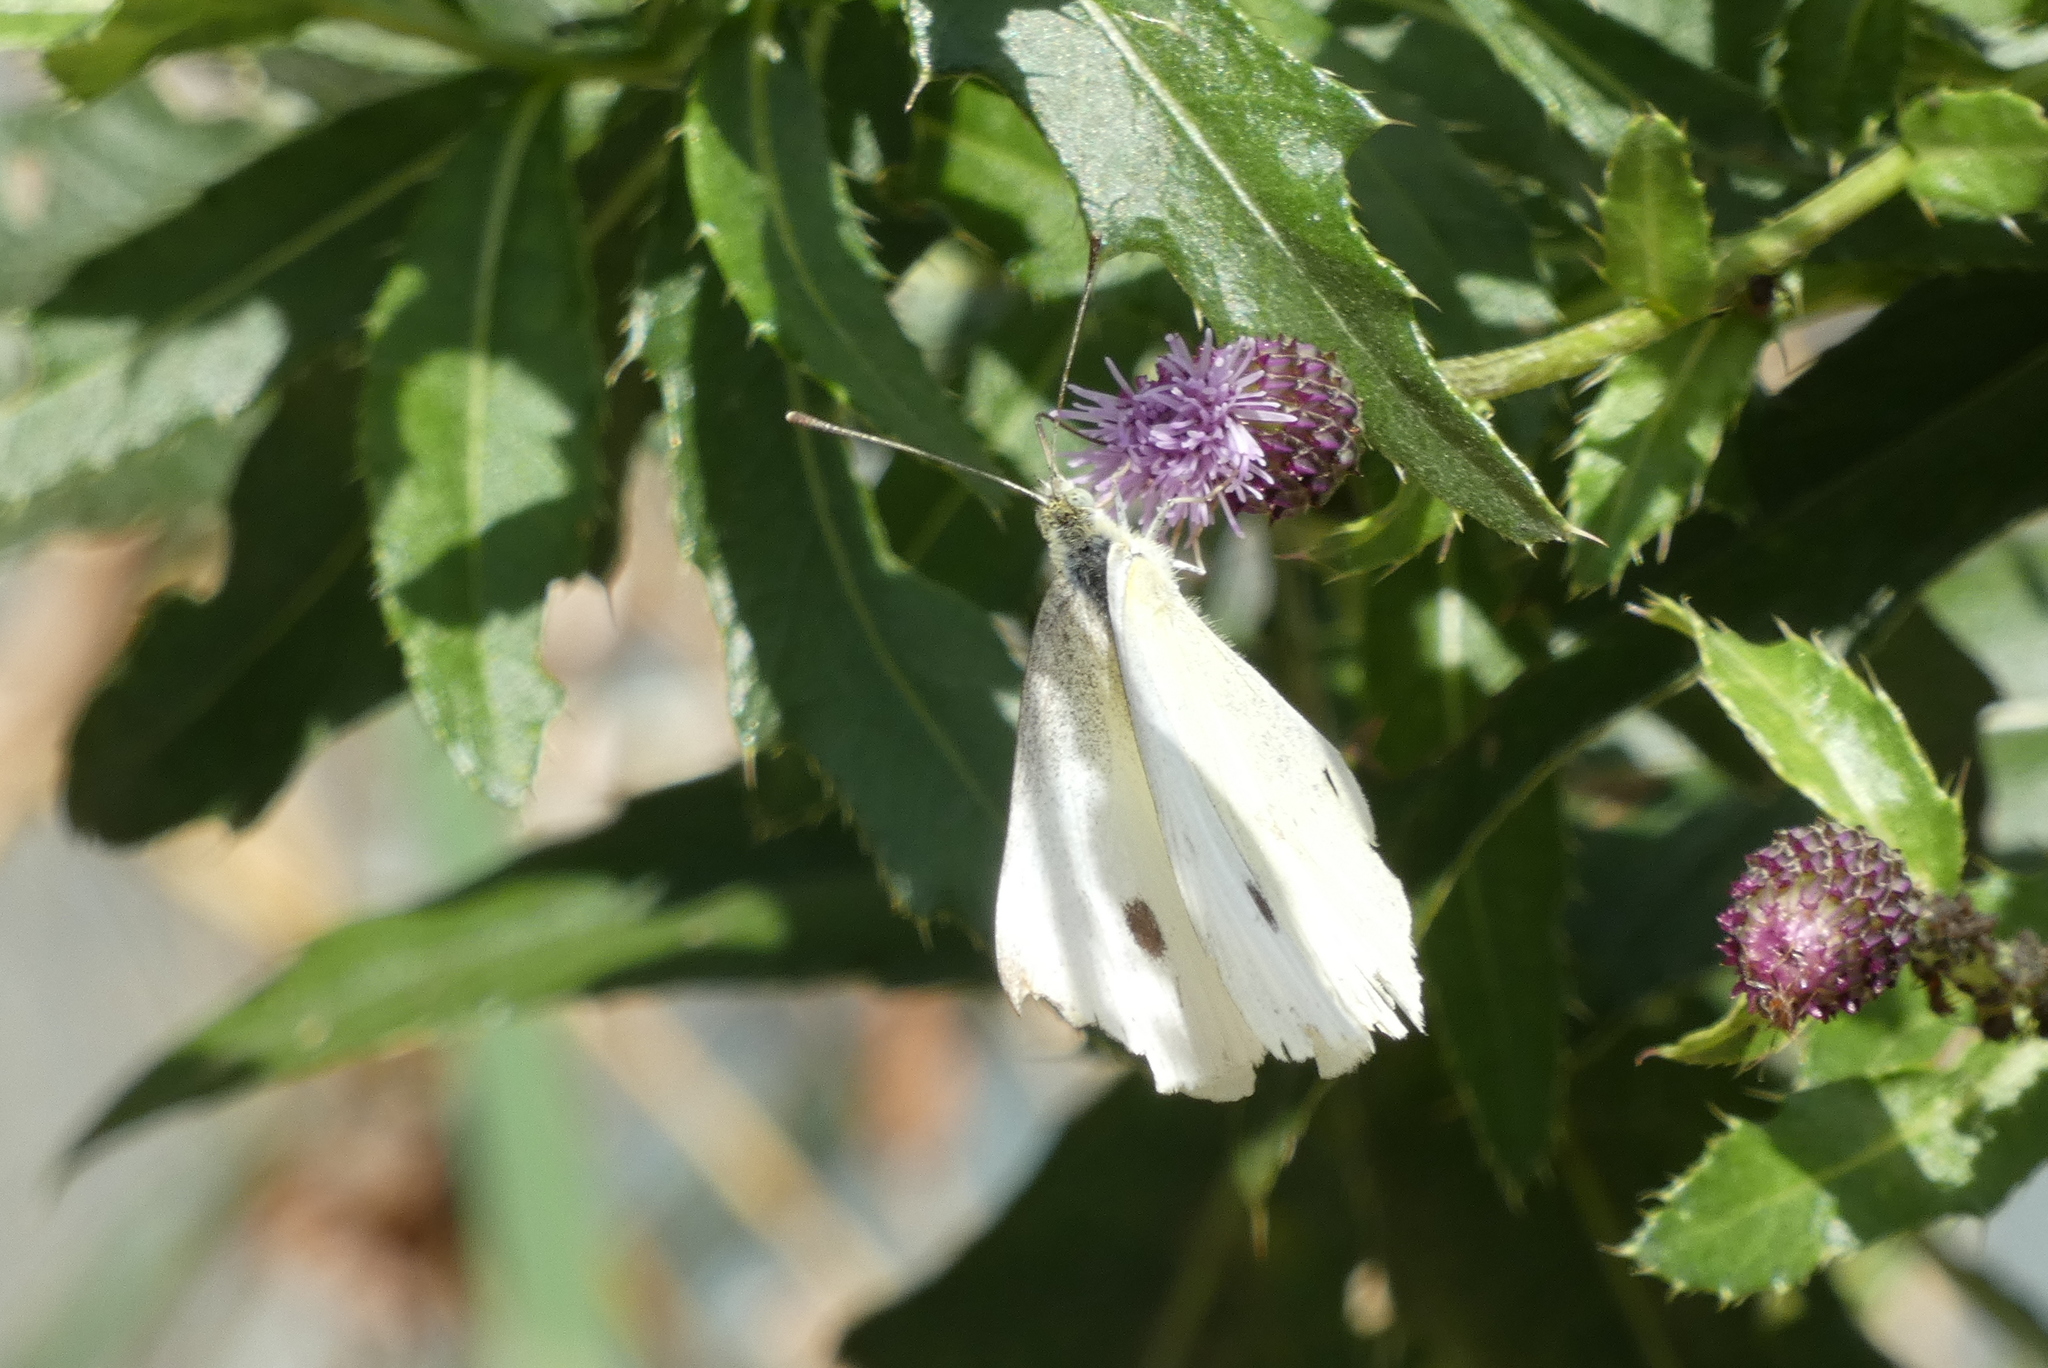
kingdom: Animalia
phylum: Arthropoda
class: Insecta
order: Lepidoptera
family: Pieridae
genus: Pieris
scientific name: Pieris rapae
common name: Small white
